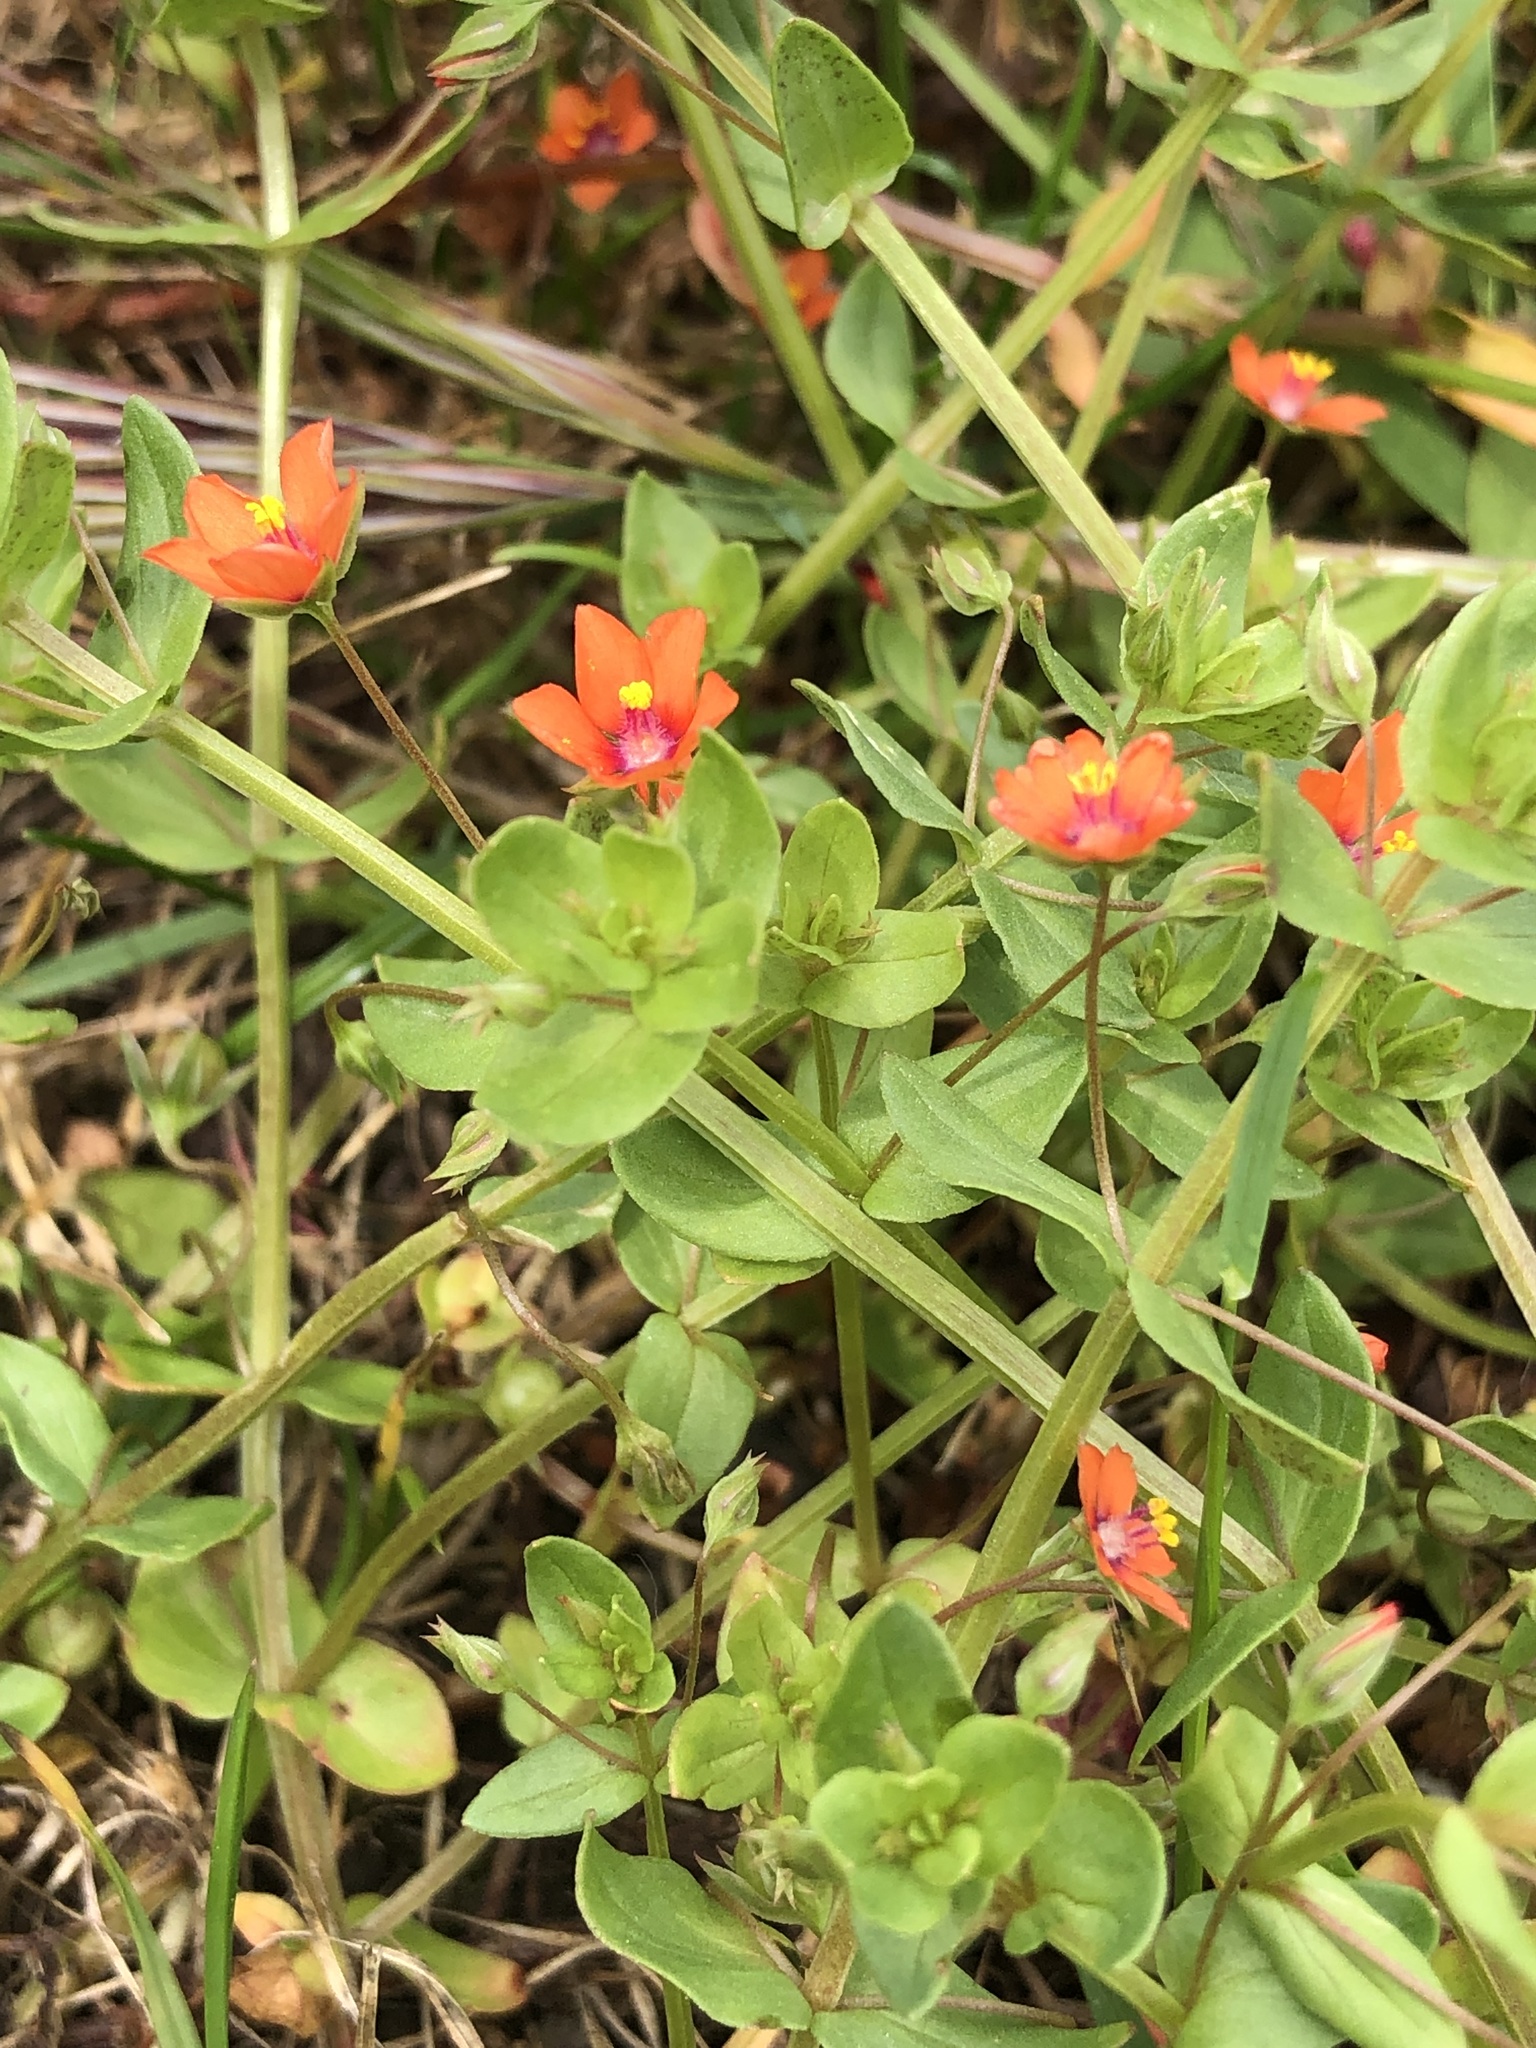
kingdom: Plantae
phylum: Tracheophyta
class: Magnoliopsida
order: Ericales
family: Primulaceae
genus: Lysimachia
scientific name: Lysimachia arvensis
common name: Scarlet pimpernel
